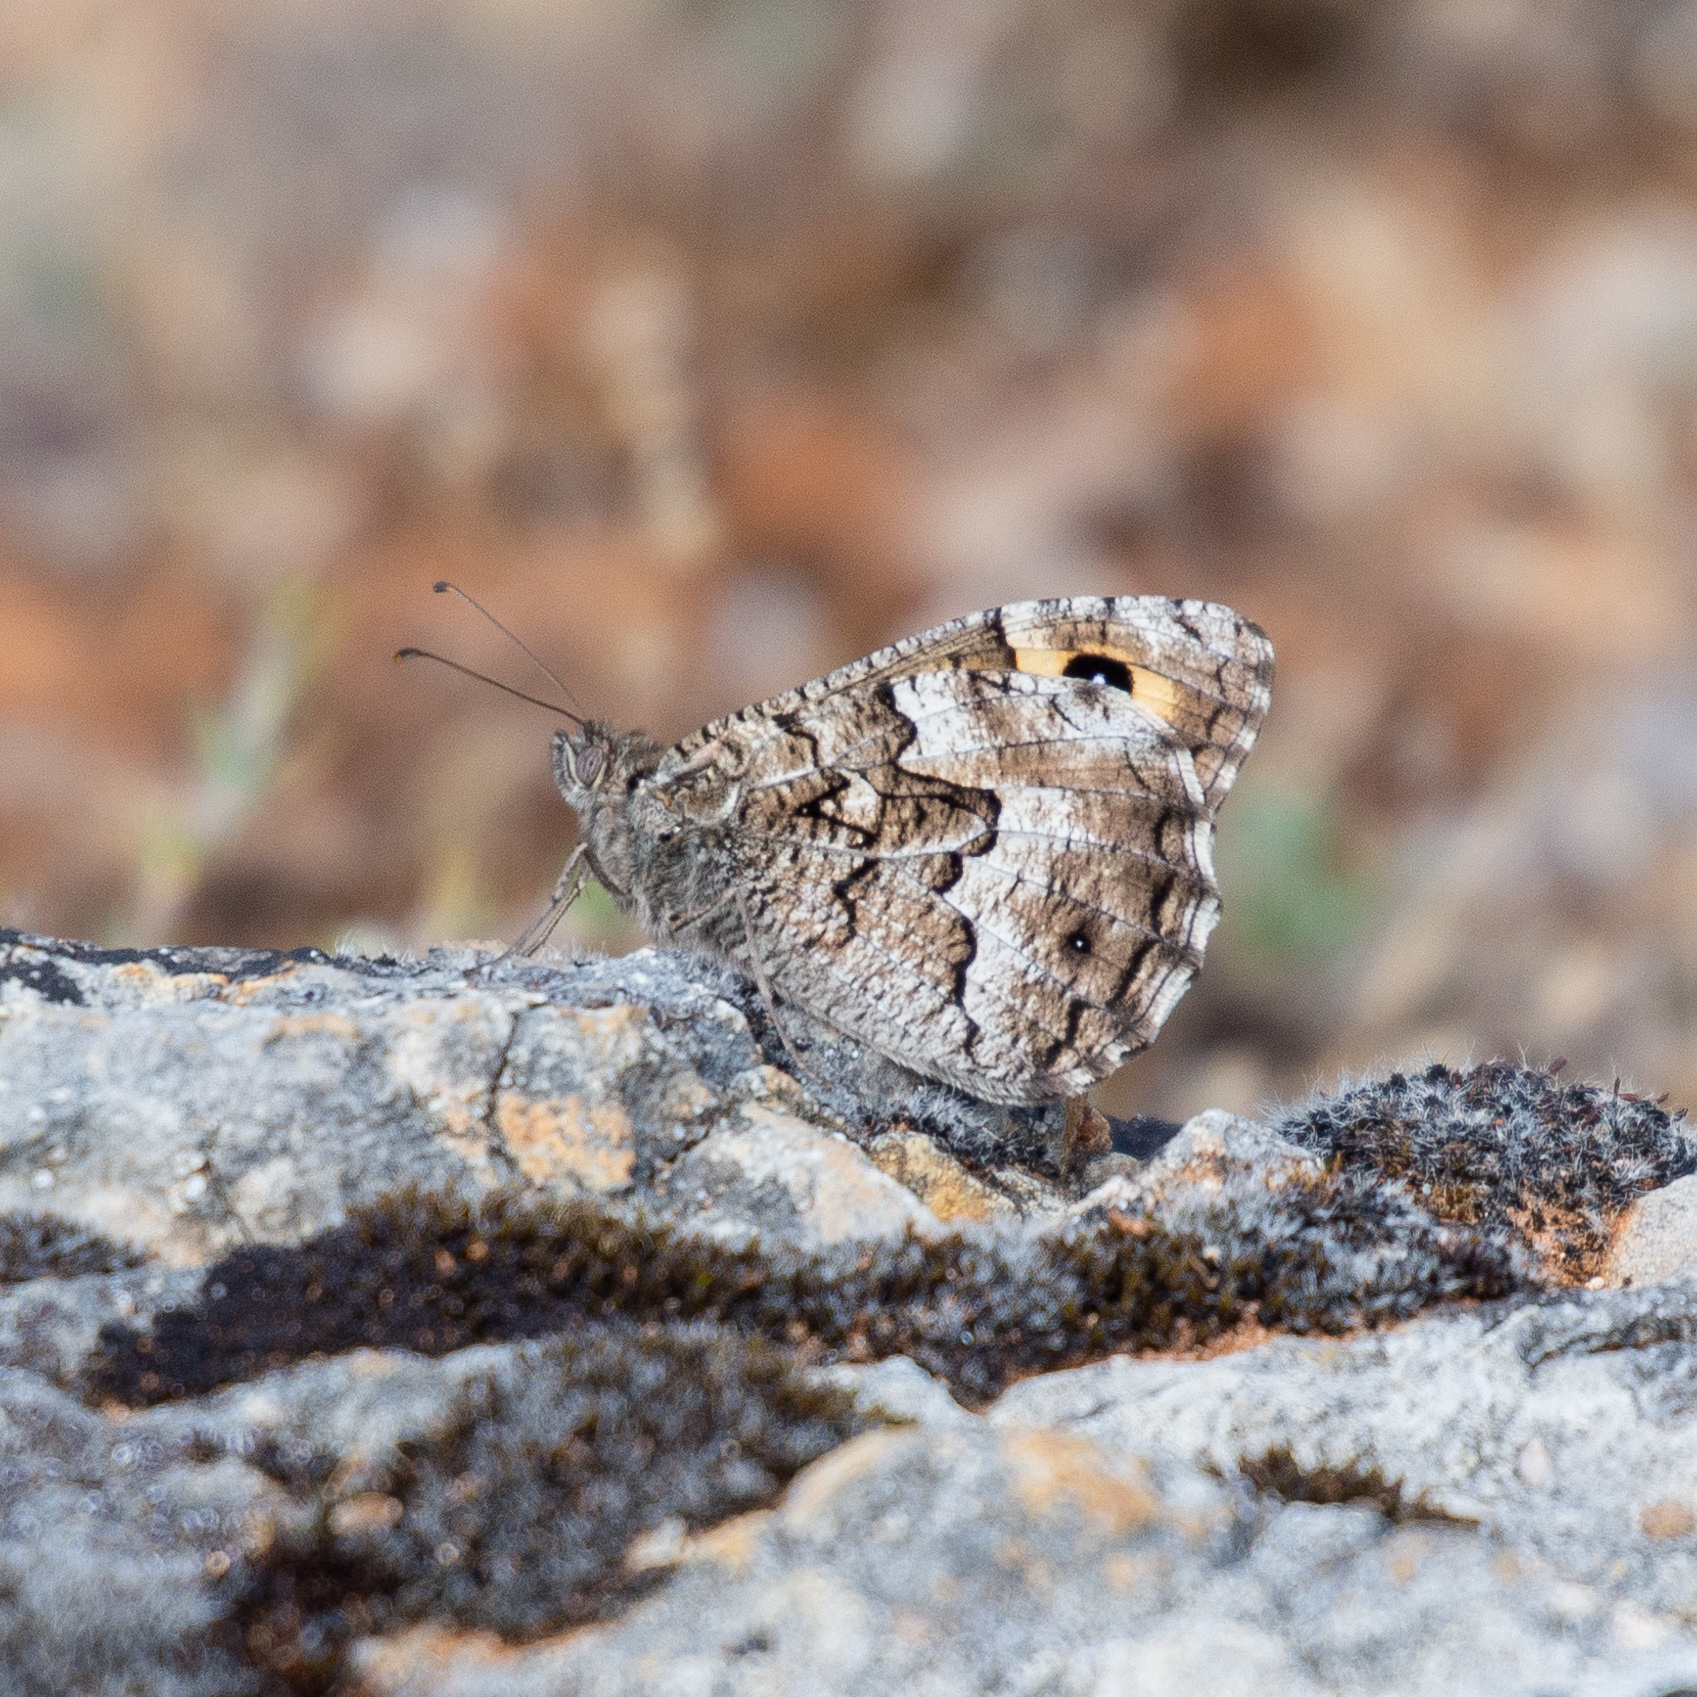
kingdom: Animalia
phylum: Arthropoda
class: Insecta
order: Lepidoptera
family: Nymphalidae
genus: Hipparchia
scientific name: Hipparchia semele
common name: Grayling
